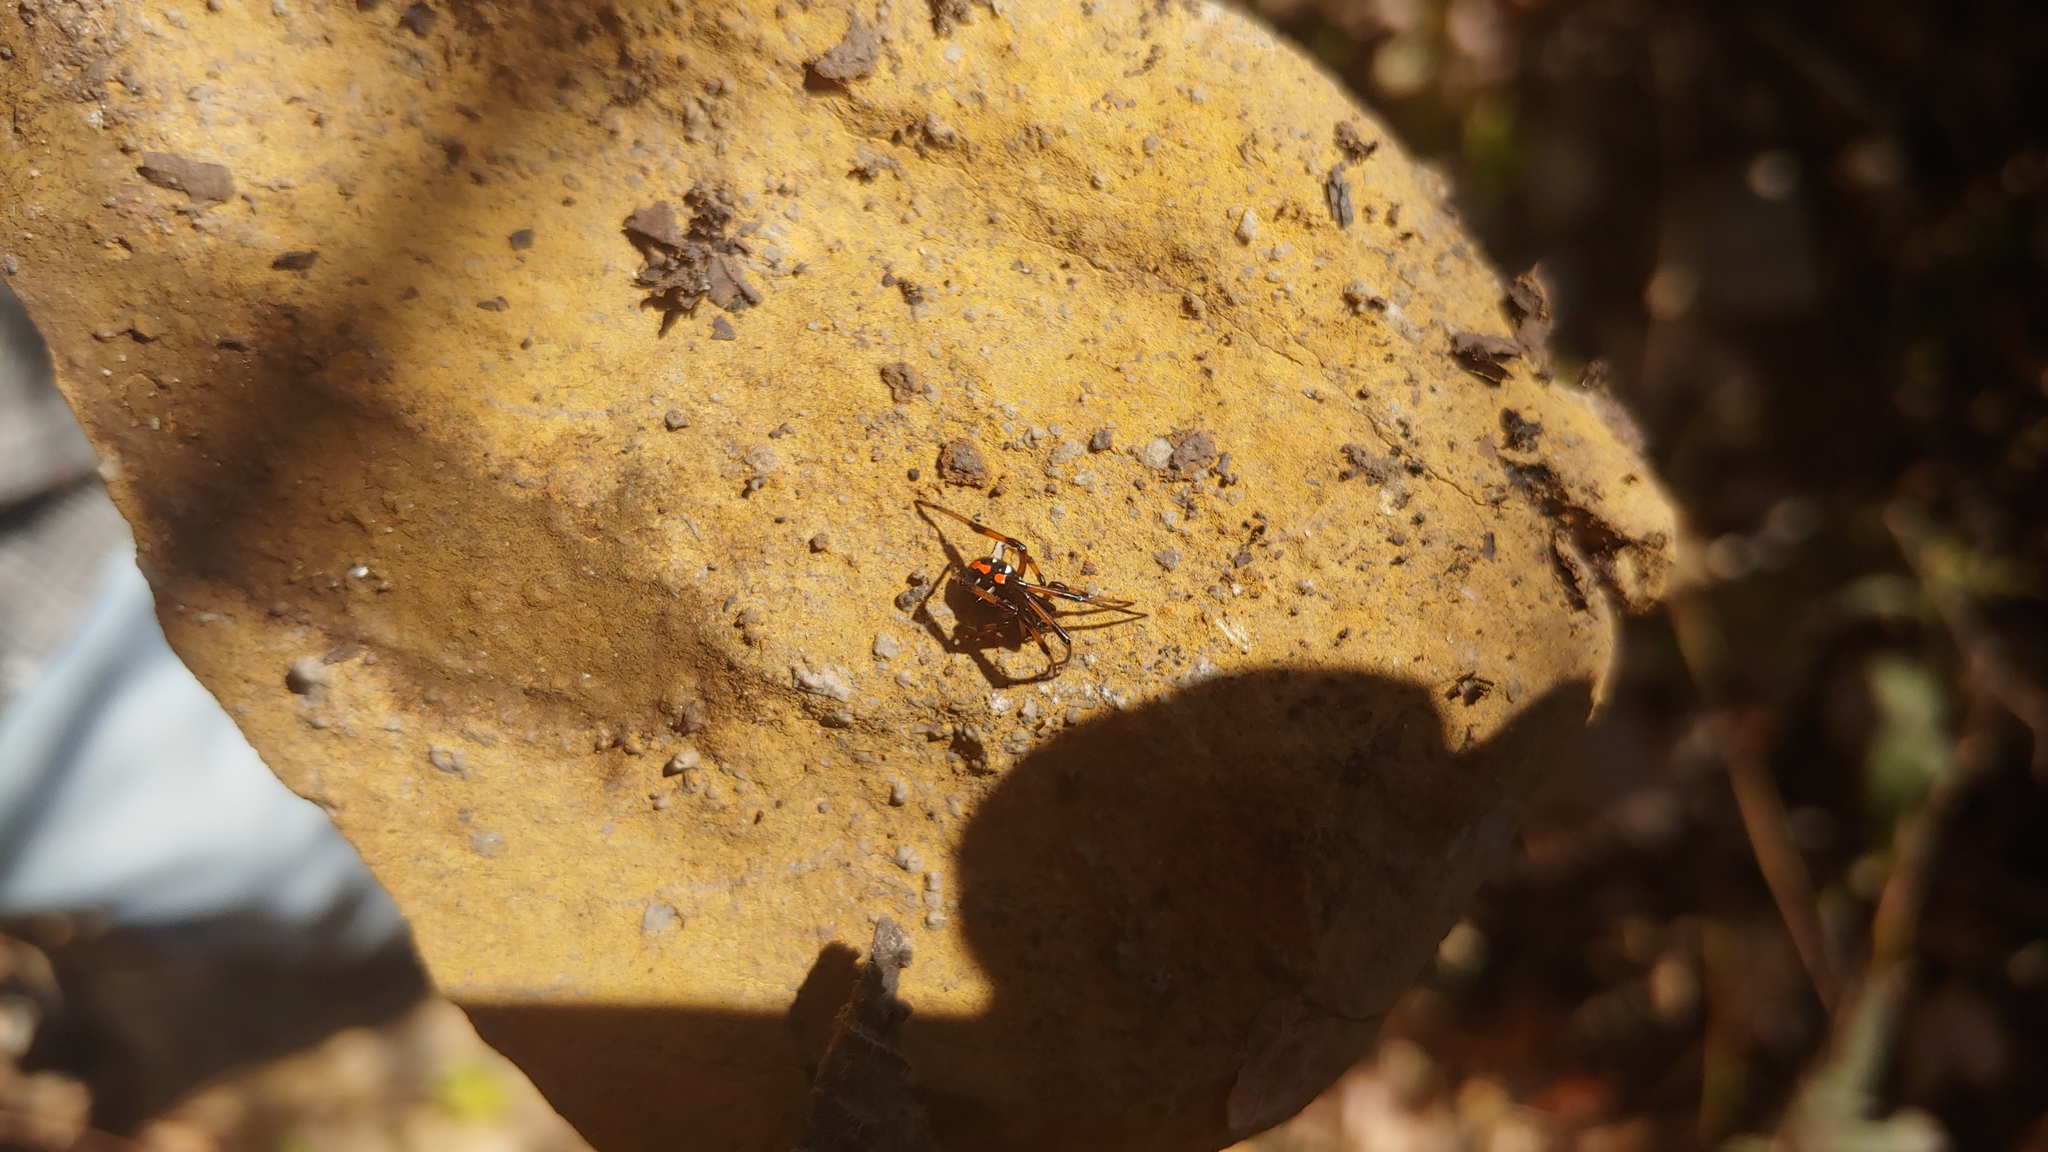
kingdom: Animalia
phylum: Arthropoda
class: Arachnida
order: Araneae
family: Theridiidae
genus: Latrodectus
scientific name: Latrodectus variolus
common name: Northern black widow
